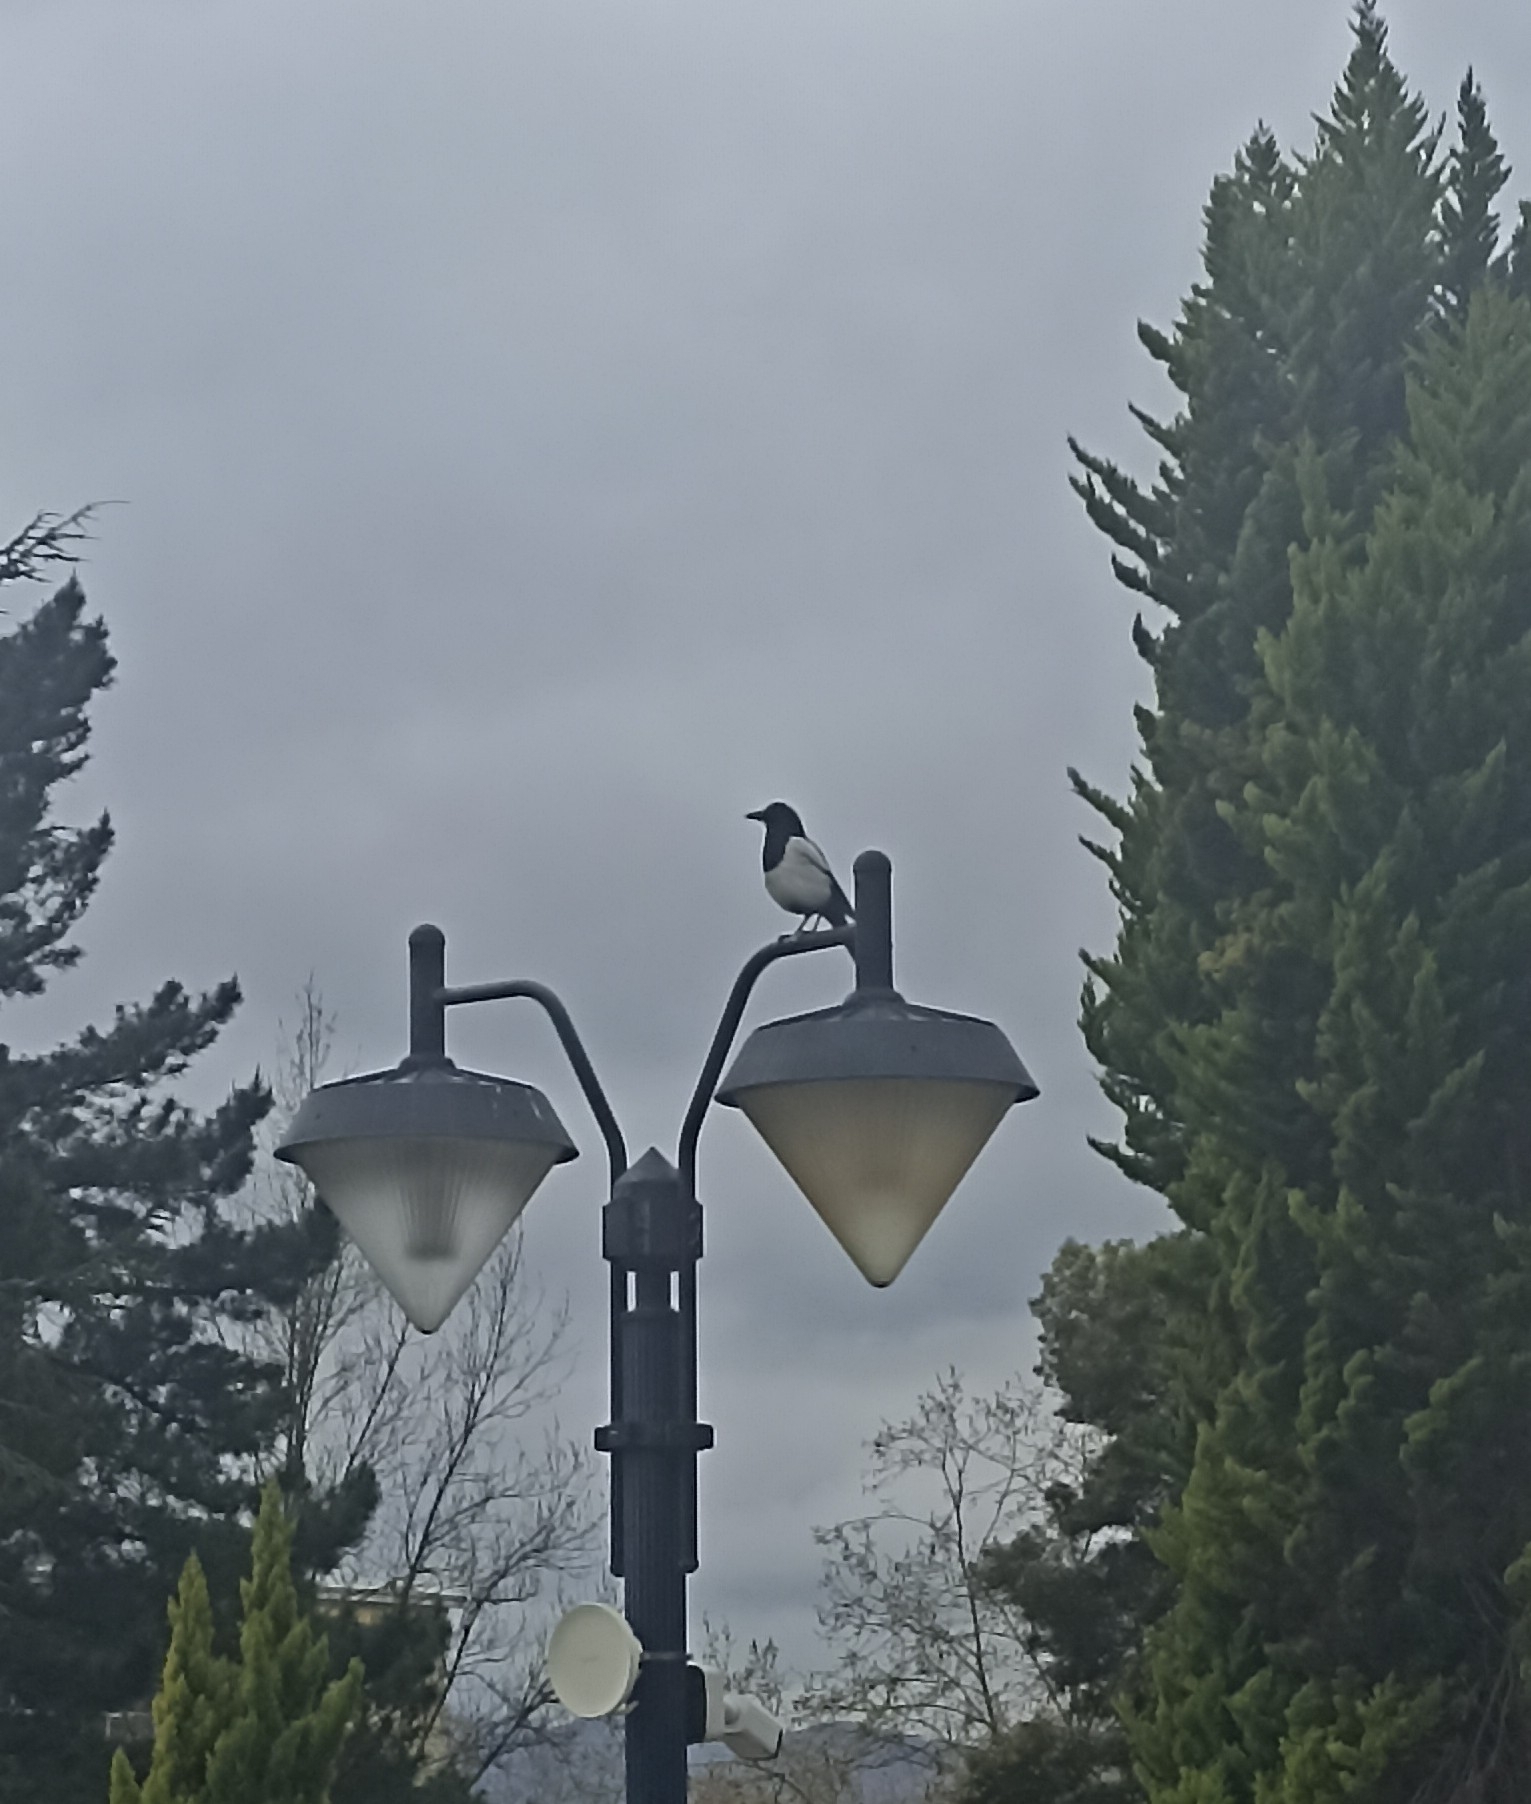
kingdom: Animalia
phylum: Chordata
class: Aves
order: Passeriformes
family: Corvidae
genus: Pica
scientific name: Pica pica
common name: Eurasian magpie
